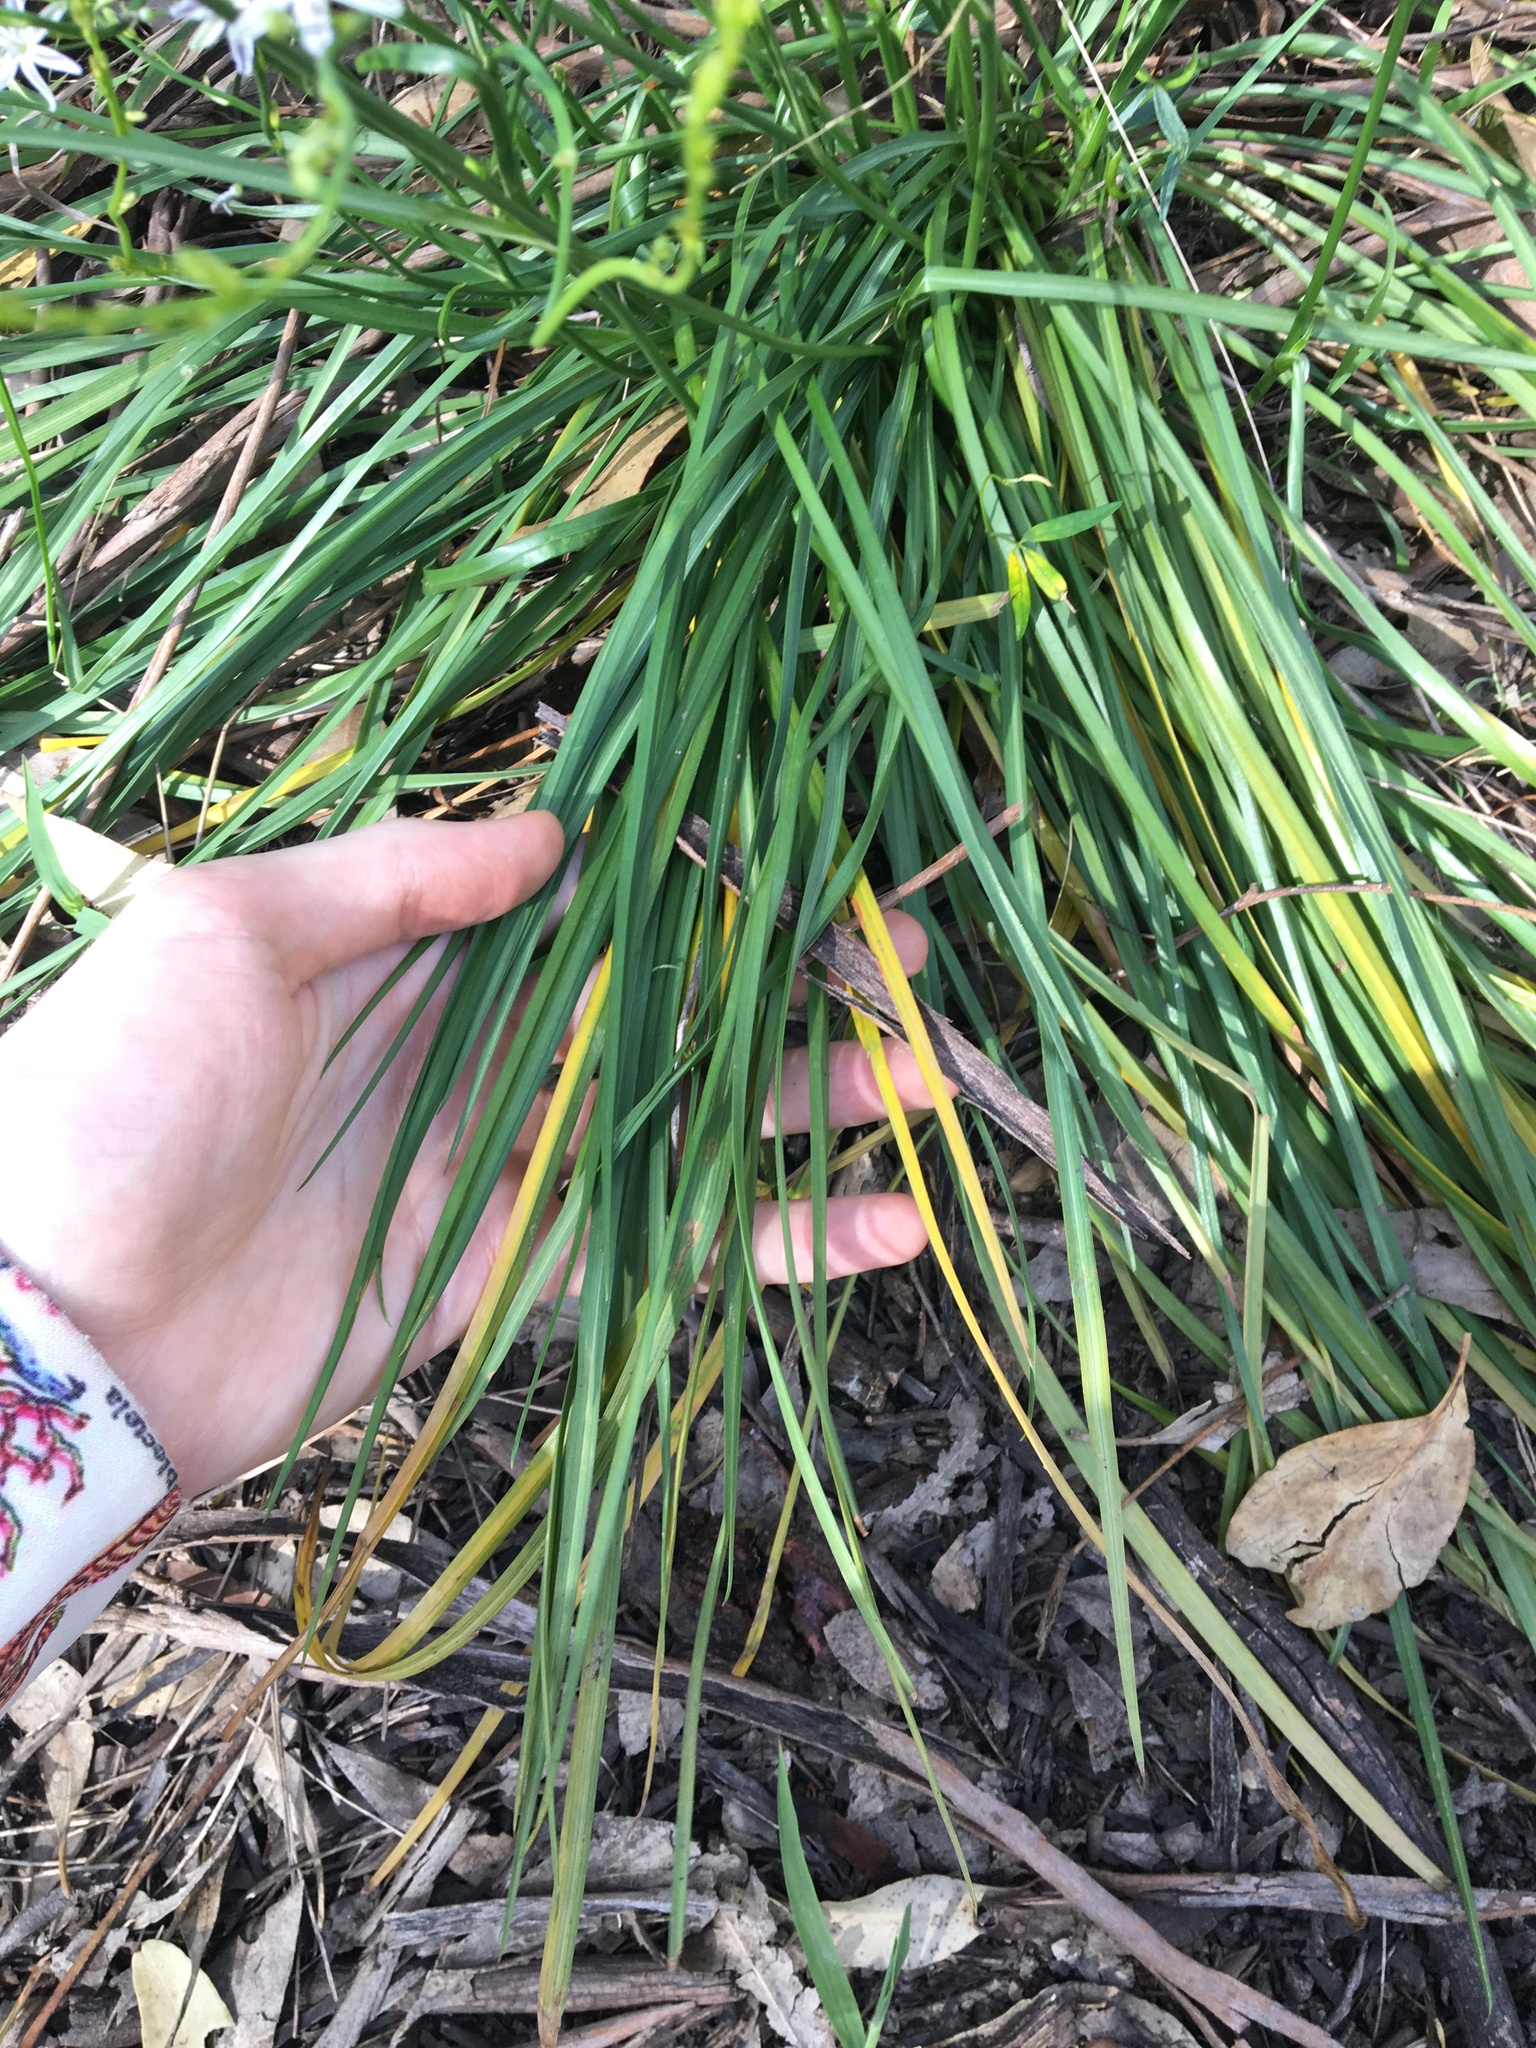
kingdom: Plantae
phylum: Tracheophyta
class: Liliopsida
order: Asparagales
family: Asphodelaceae
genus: Caesia
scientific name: Caesia parviflora
